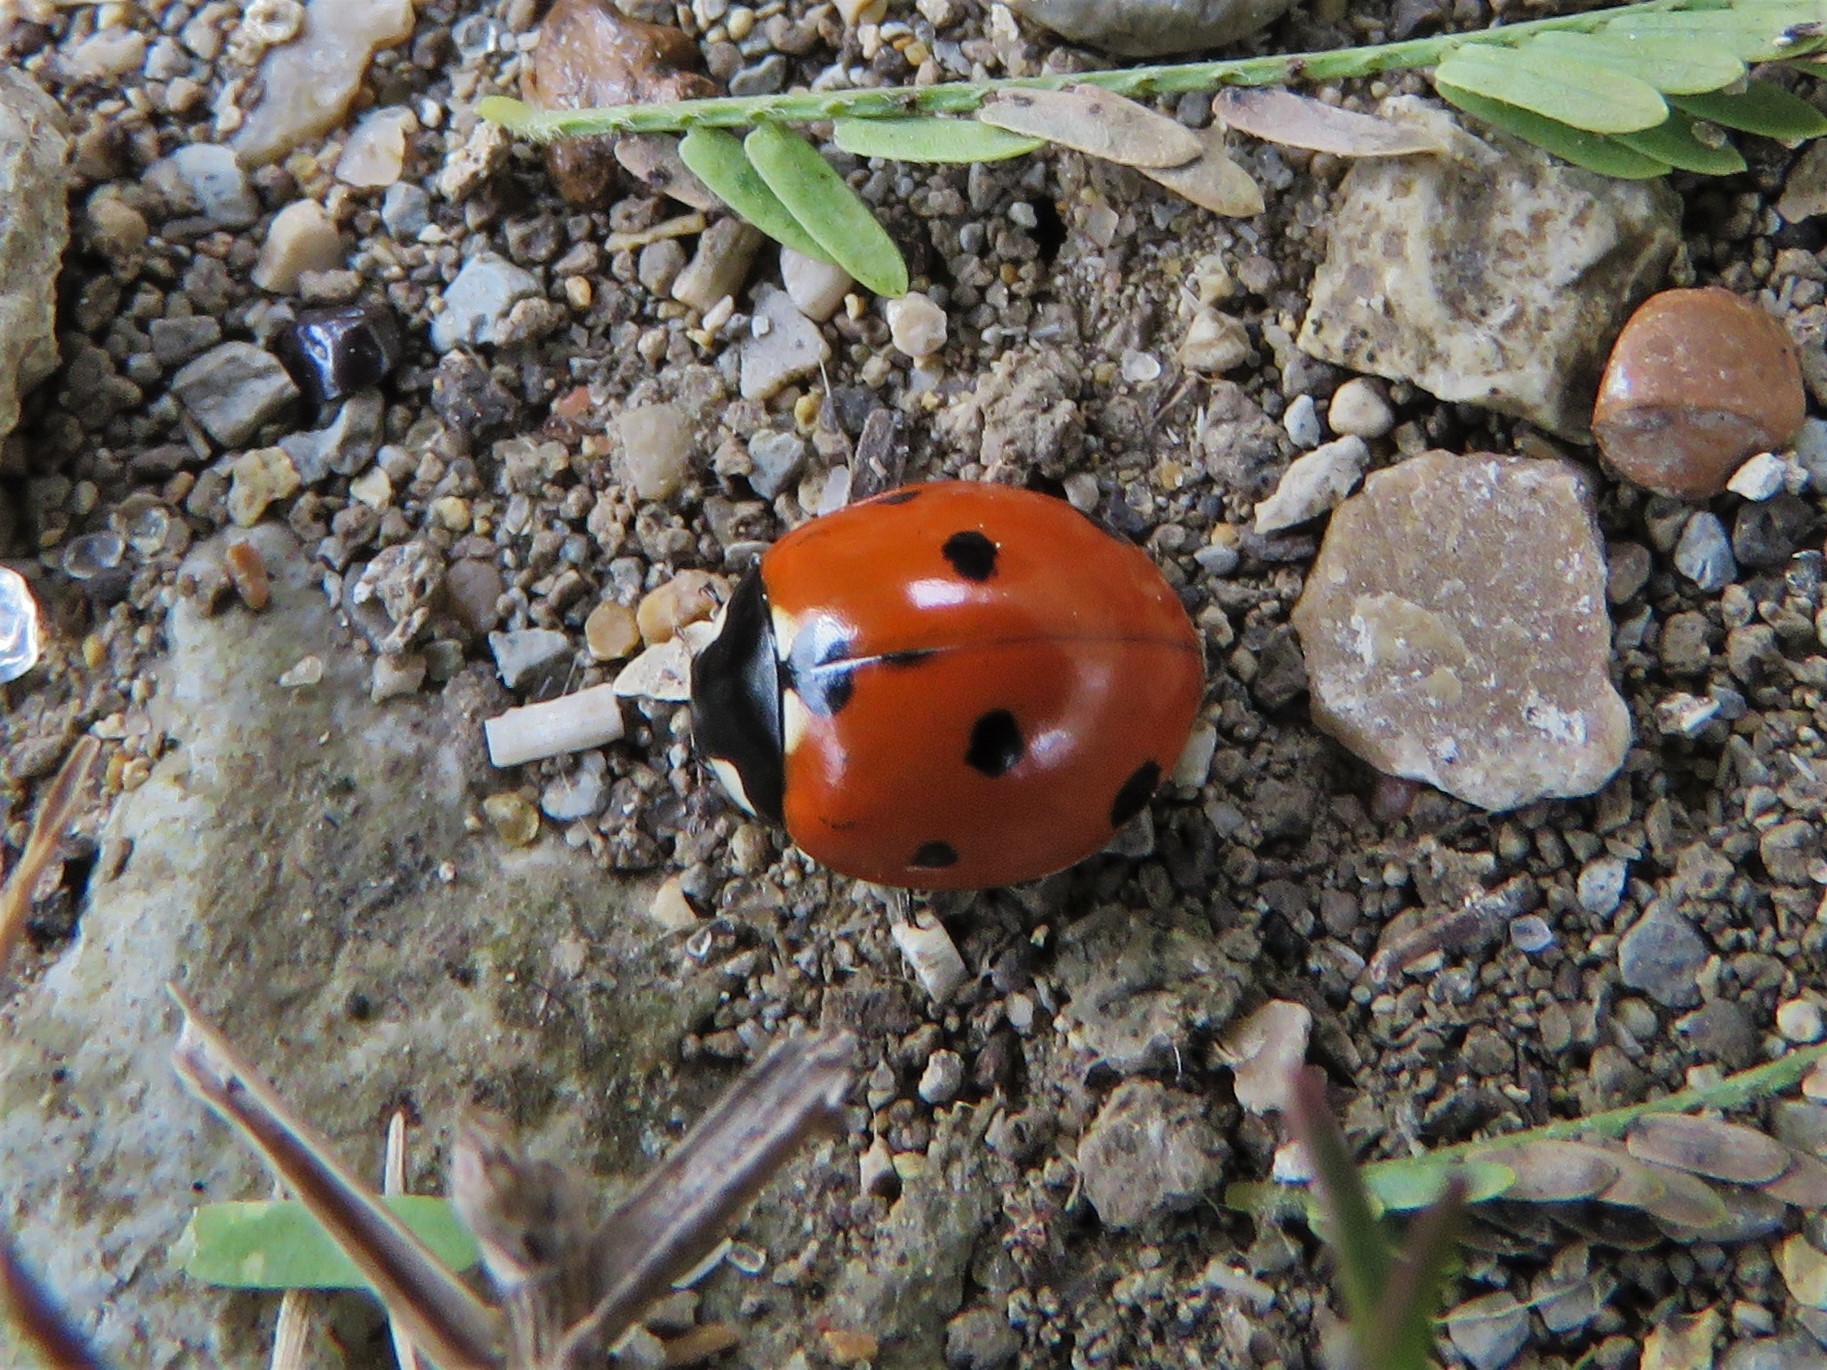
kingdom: Animalia
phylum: Arthropoda
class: Insecta
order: Coleoptera
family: Coccinellidae
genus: Coccinella
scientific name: Coccinella septempunctata
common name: Sevenspotted lady beetle
